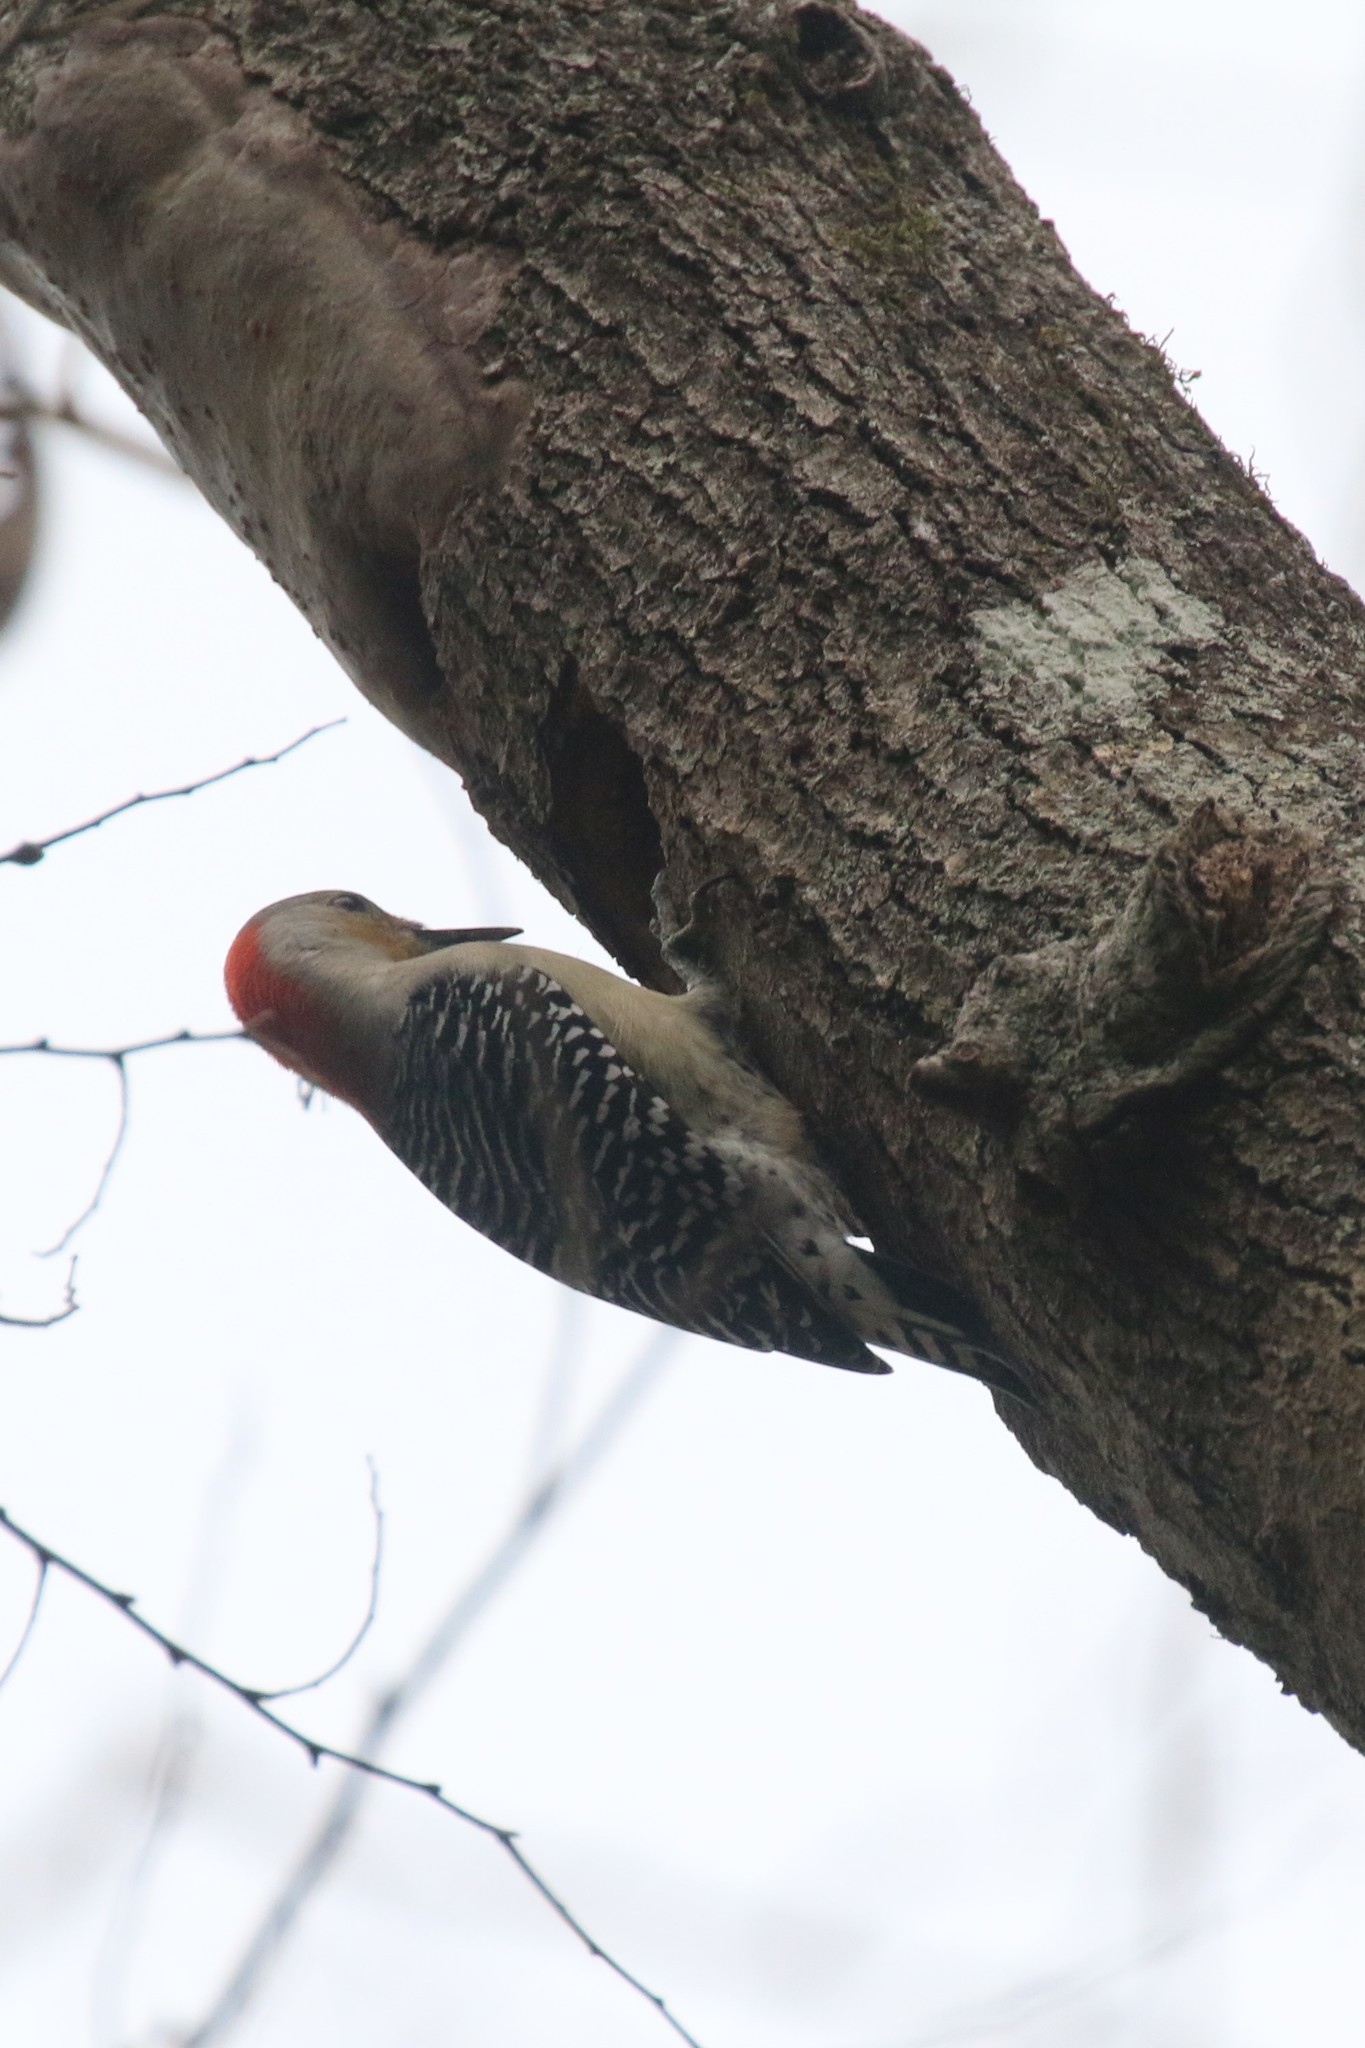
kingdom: Animalia
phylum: Chordata
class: Aves
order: Piciformes
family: Picidae
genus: Melanerpes
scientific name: Melanerpes carolinus
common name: Red-bellied woodpecker
